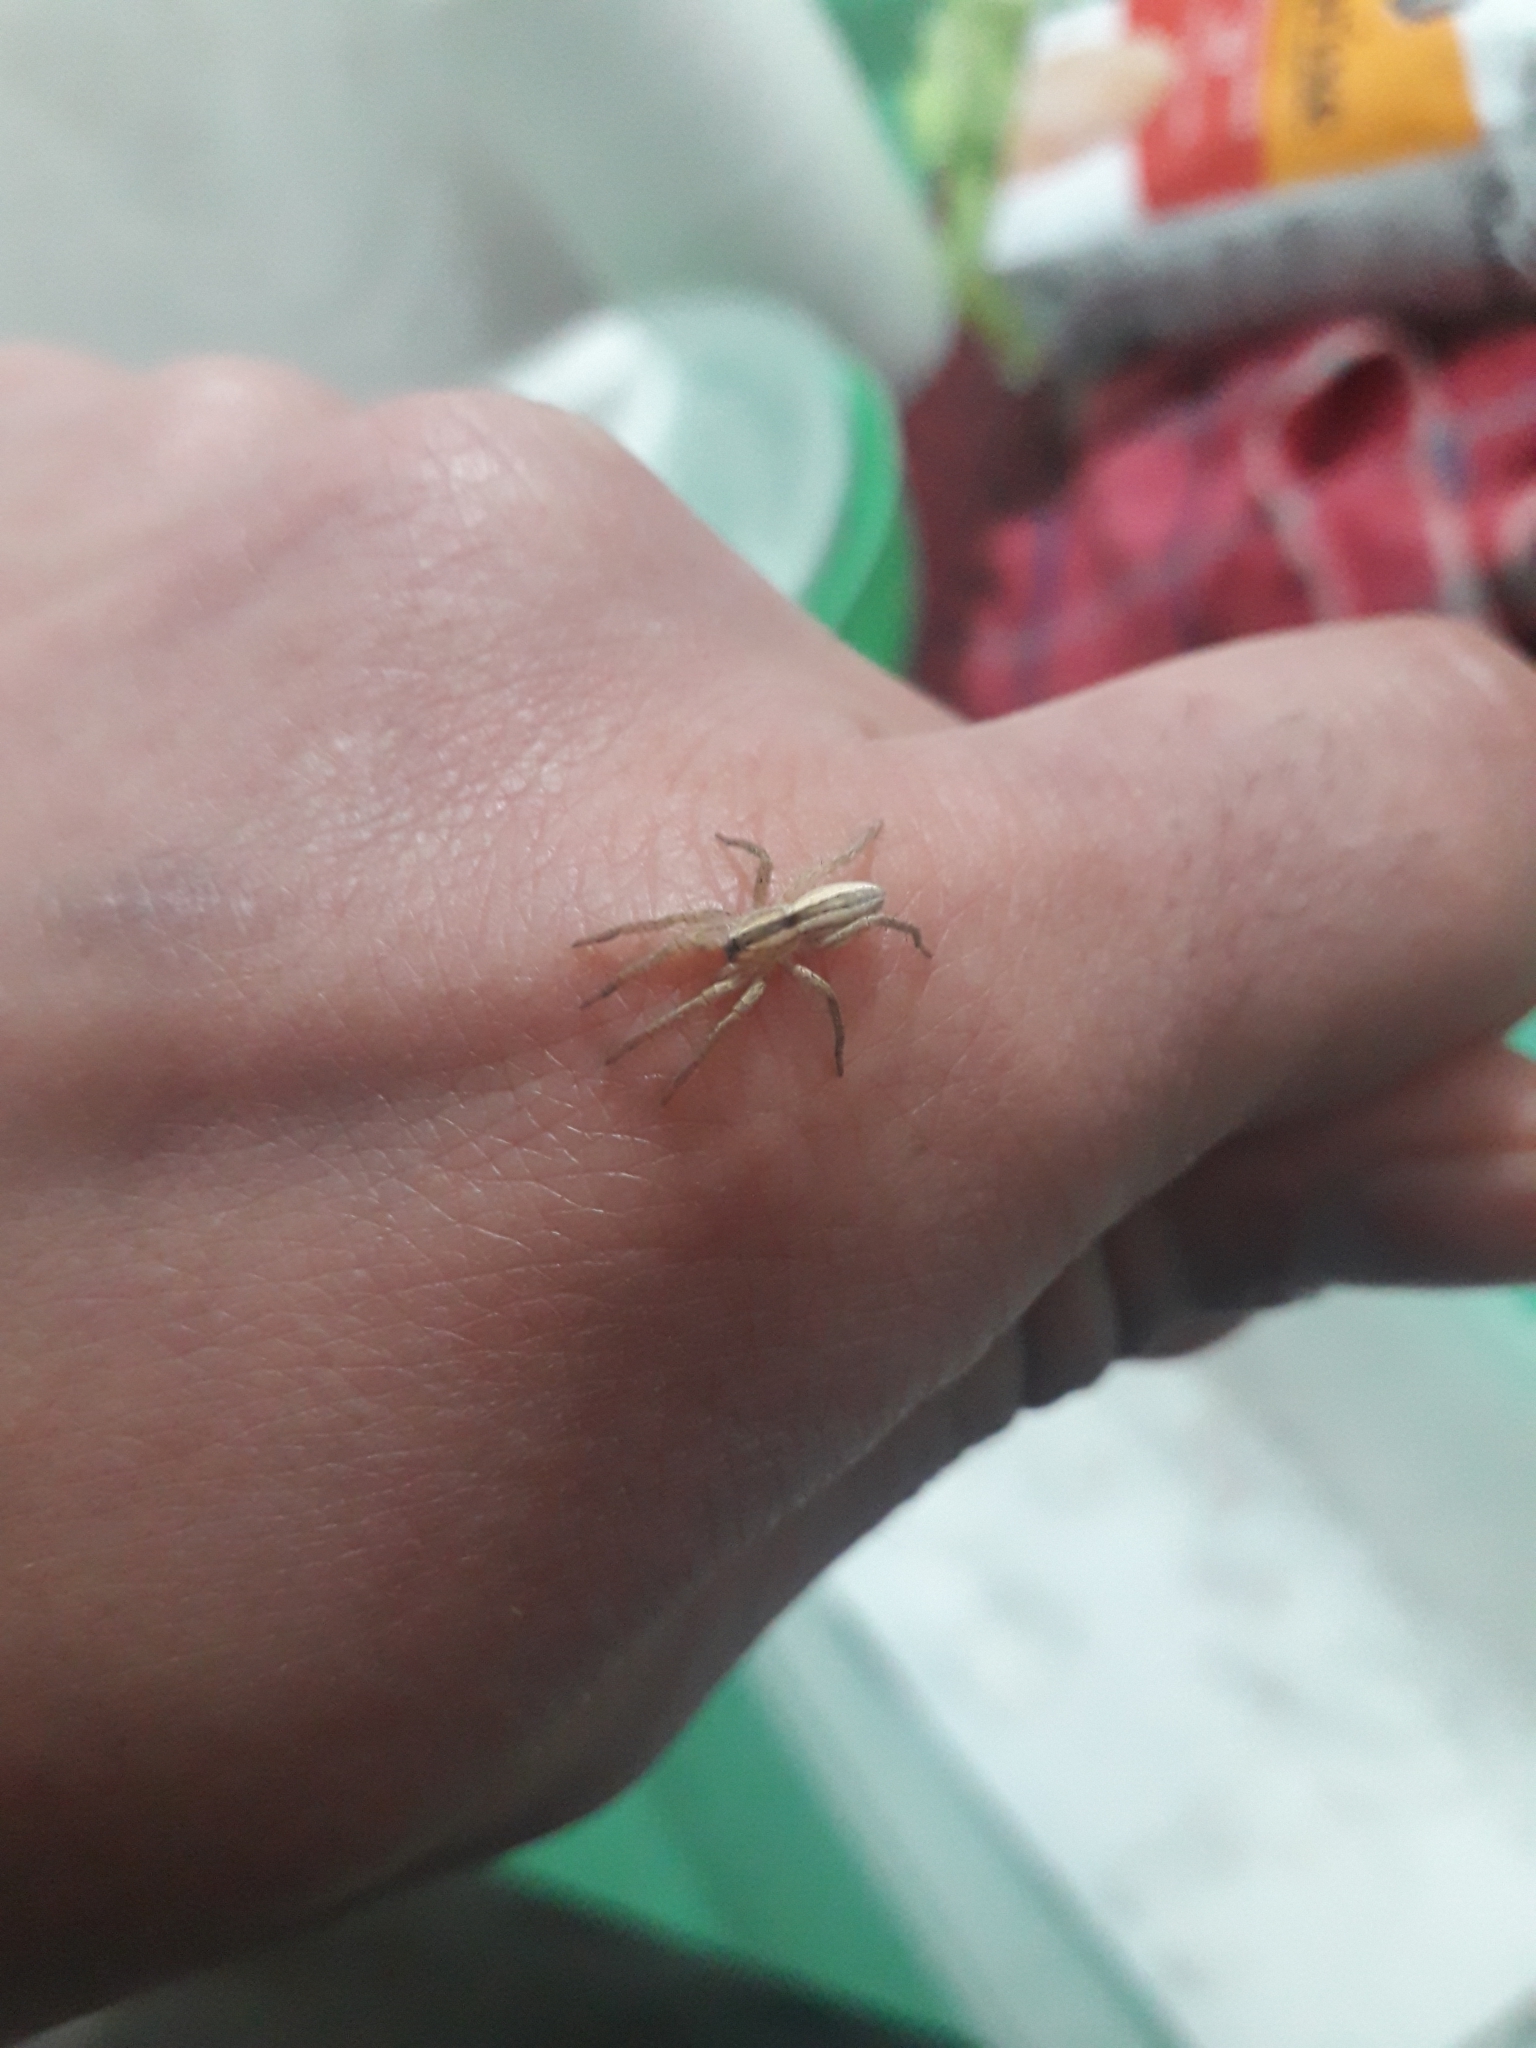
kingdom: Animalia
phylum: Arthropoda
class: Arachnida
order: Araneae
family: Anyphaenidae
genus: Arachosia
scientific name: Arachosia
